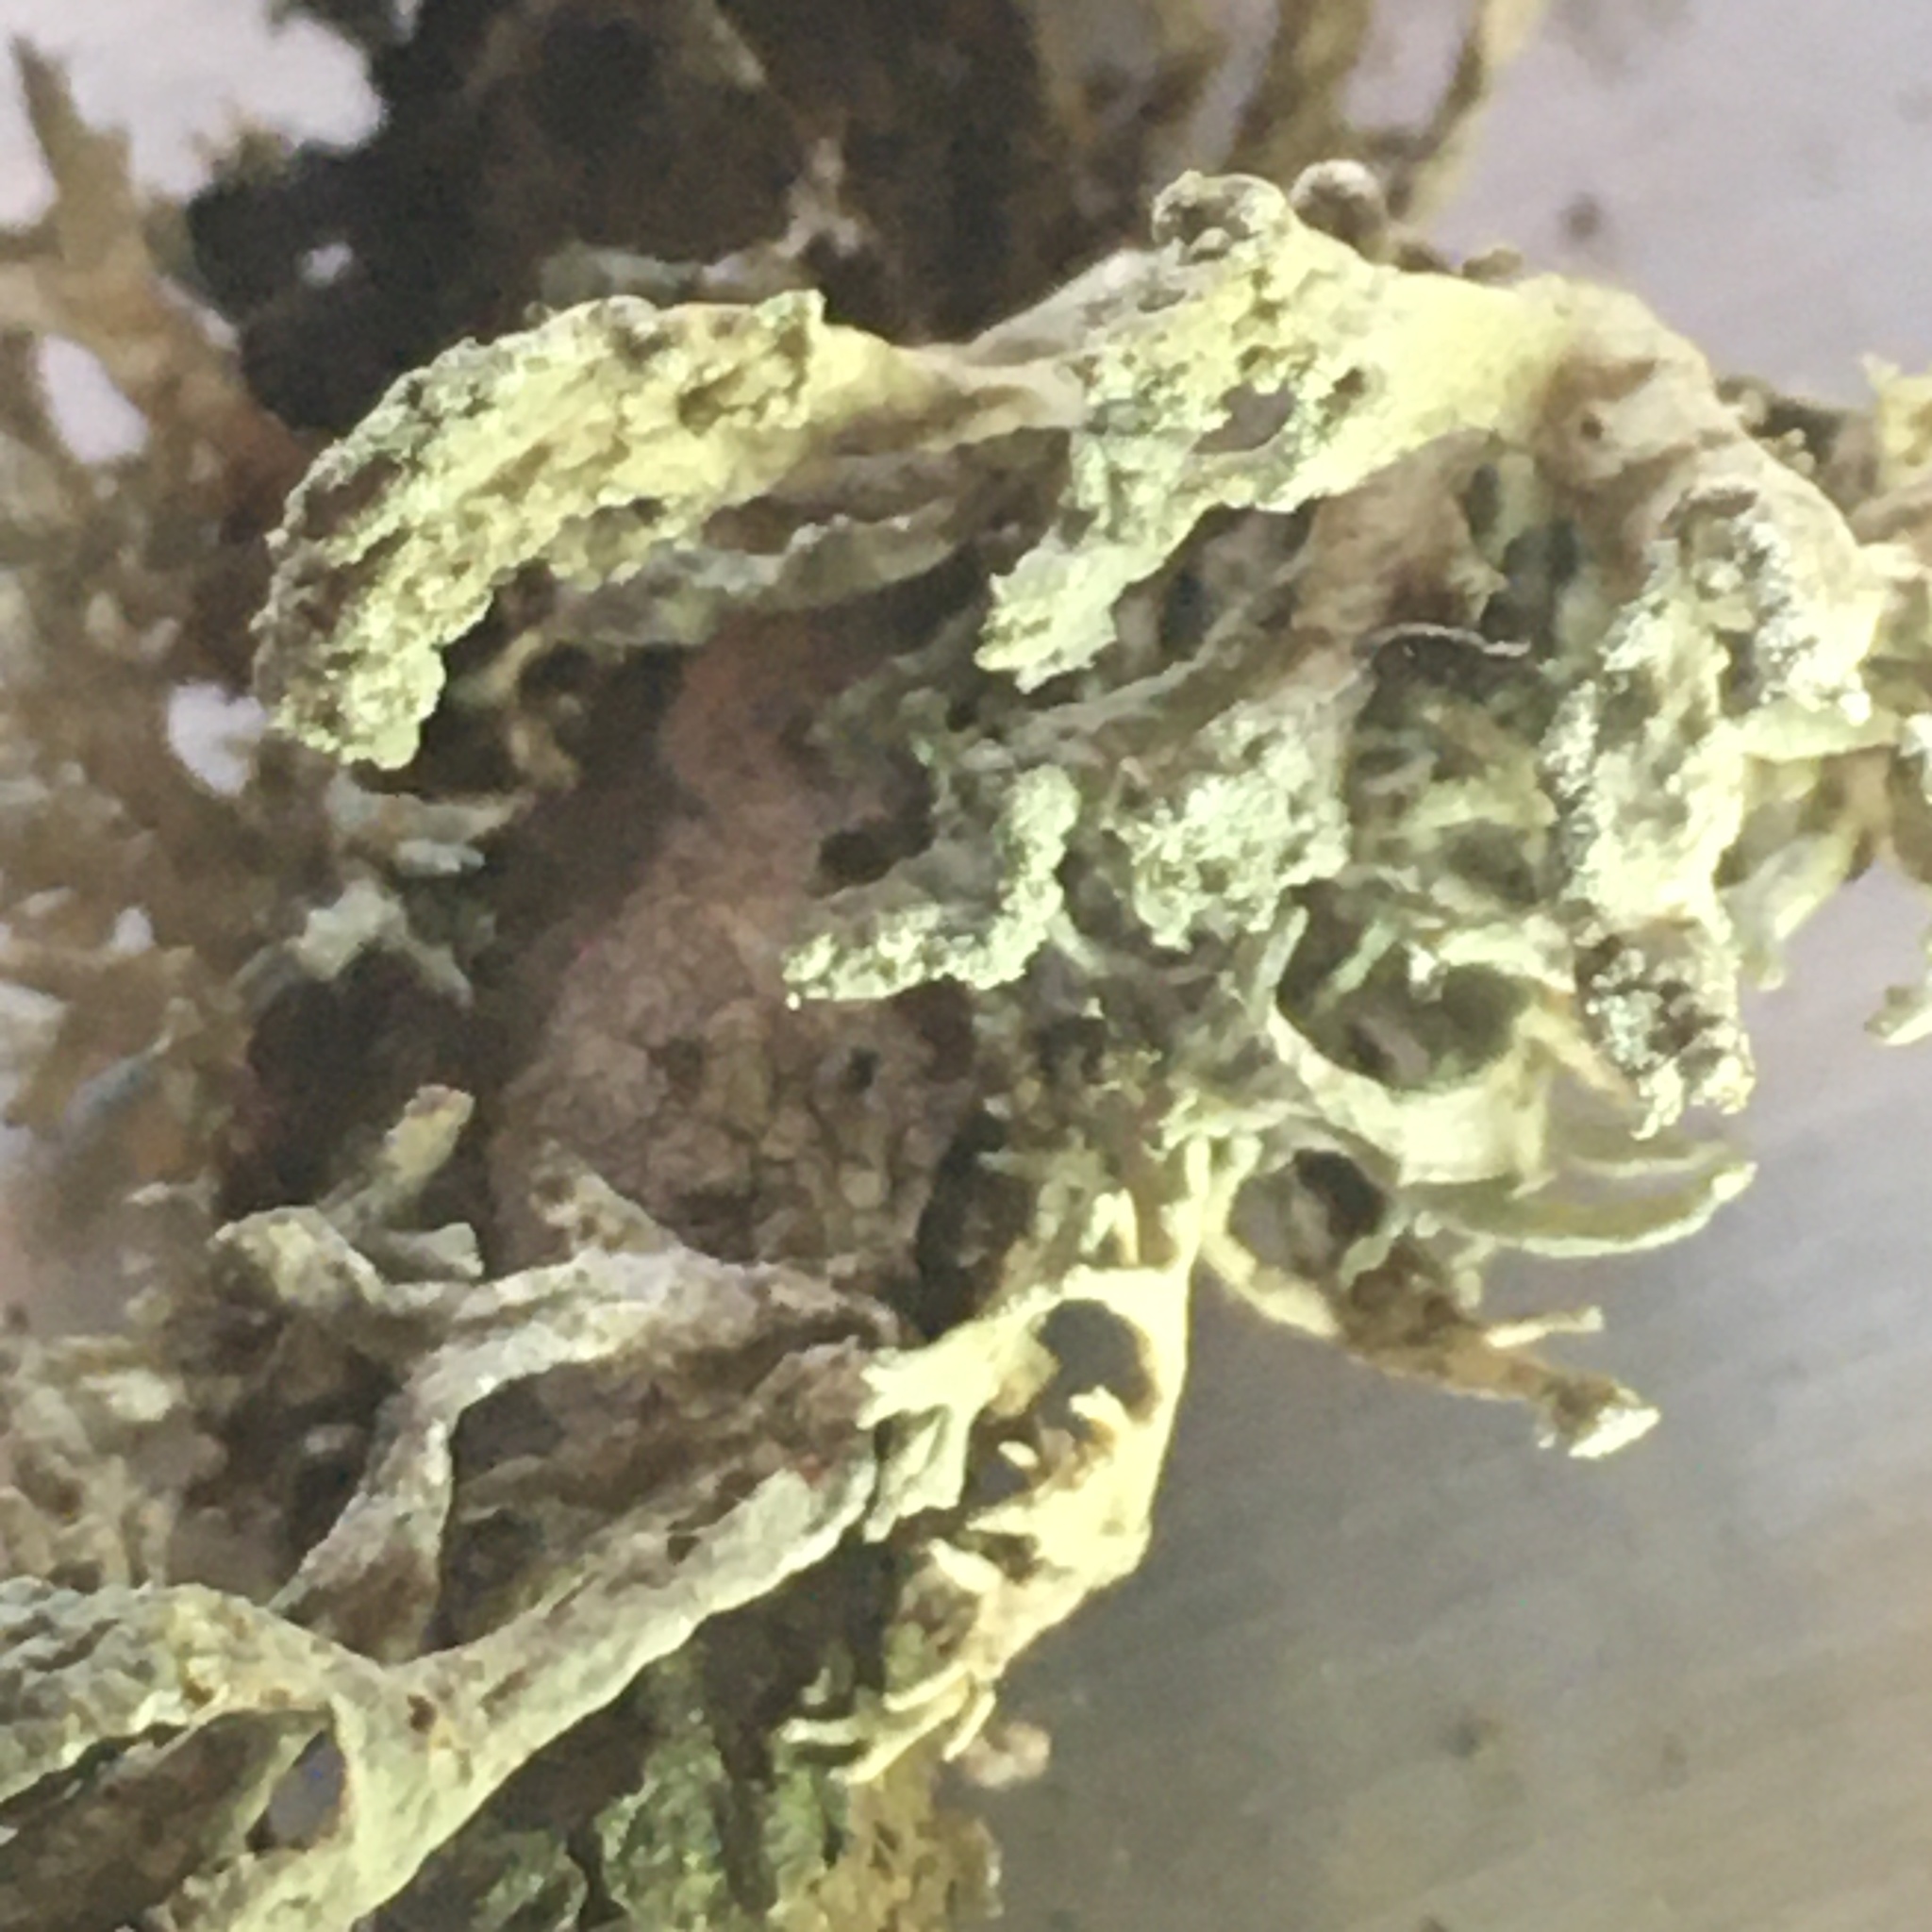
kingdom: Fungi
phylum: Ascomycota
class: Lecanoromycetes
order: Lecanorales
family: Parmeliaceae
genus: Evernia
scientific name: Evernia prunastri
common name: Oak moss
